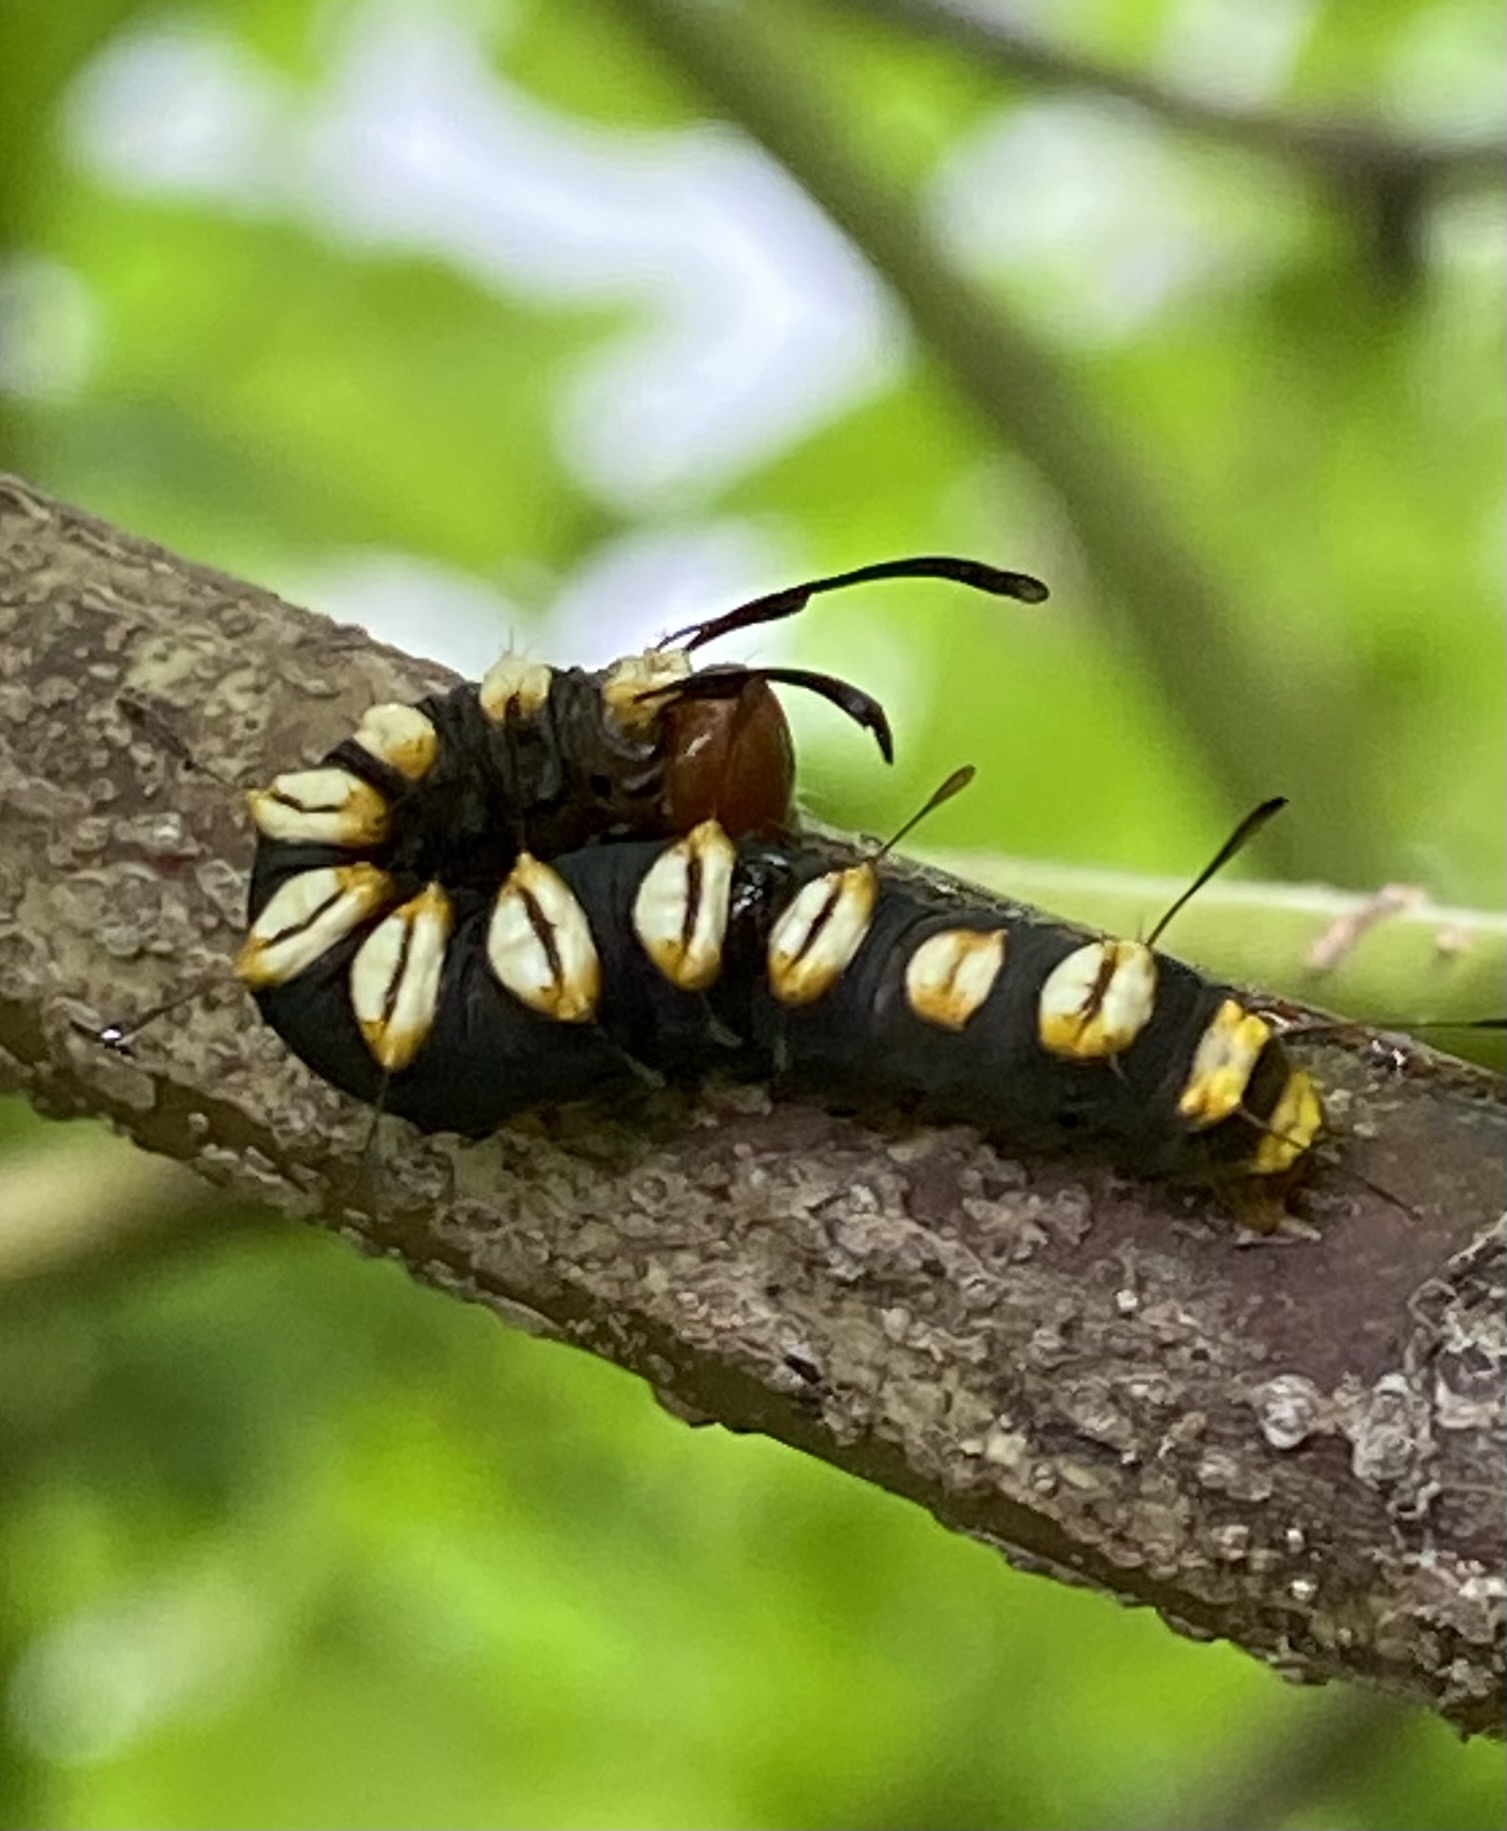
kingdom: Animalia
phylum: Arthropoda
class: Insecta
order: Lepidoptera
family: Noctuidae
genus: Acronicta
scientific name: Acronicta funeralis
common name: Funerary dagger
